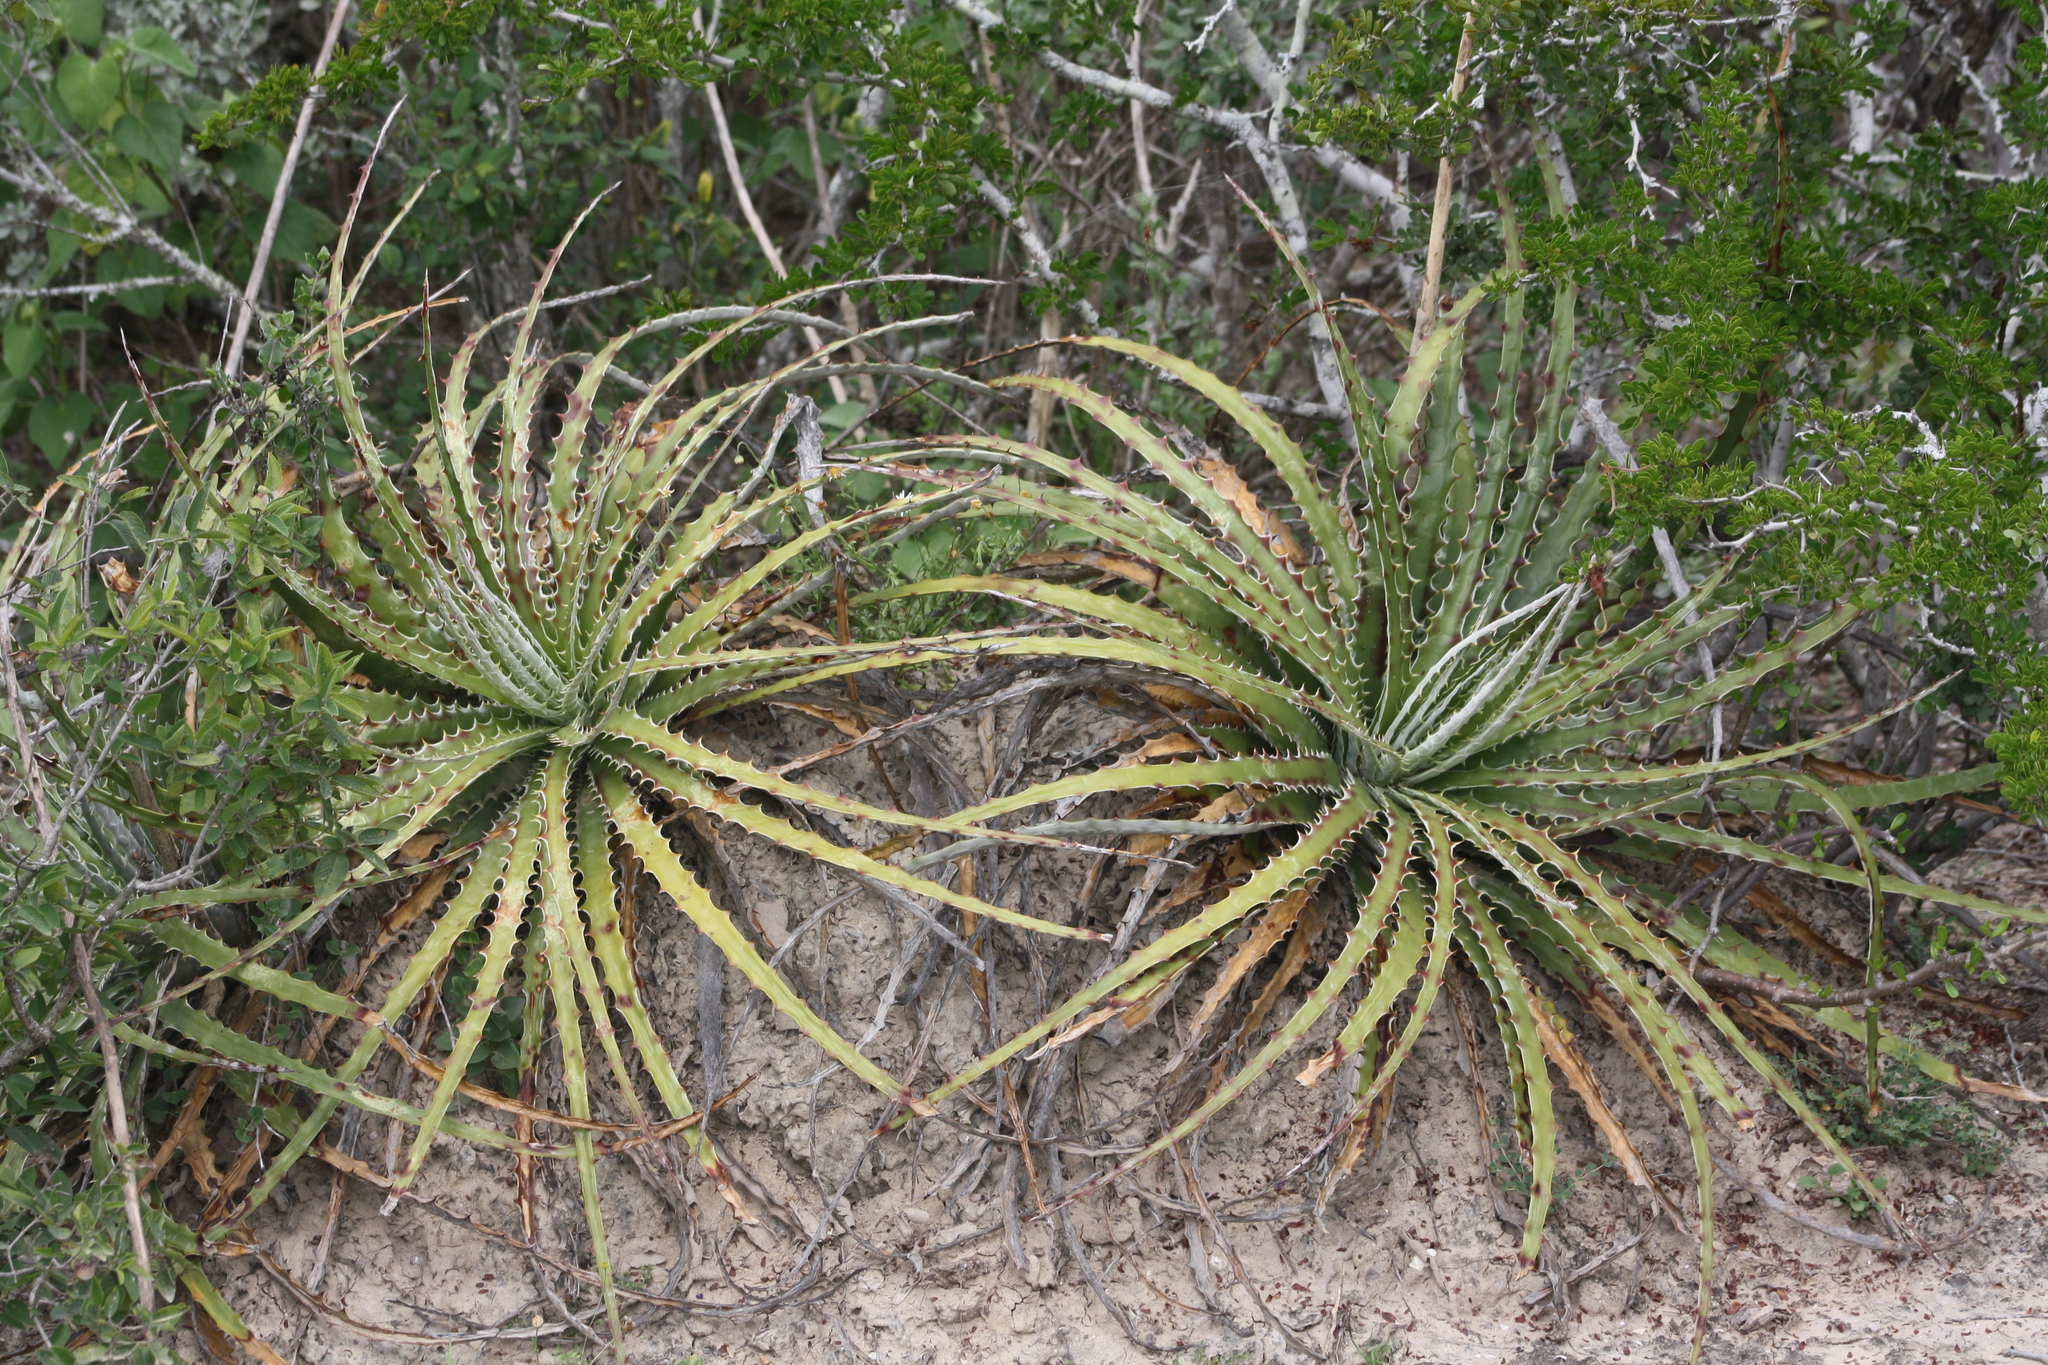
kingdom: Plantae
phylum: Tracheophyta
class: Liliopsida
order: Poales
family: Bromeliaceae
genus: Hechtia
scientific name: Hechtia glomerata
